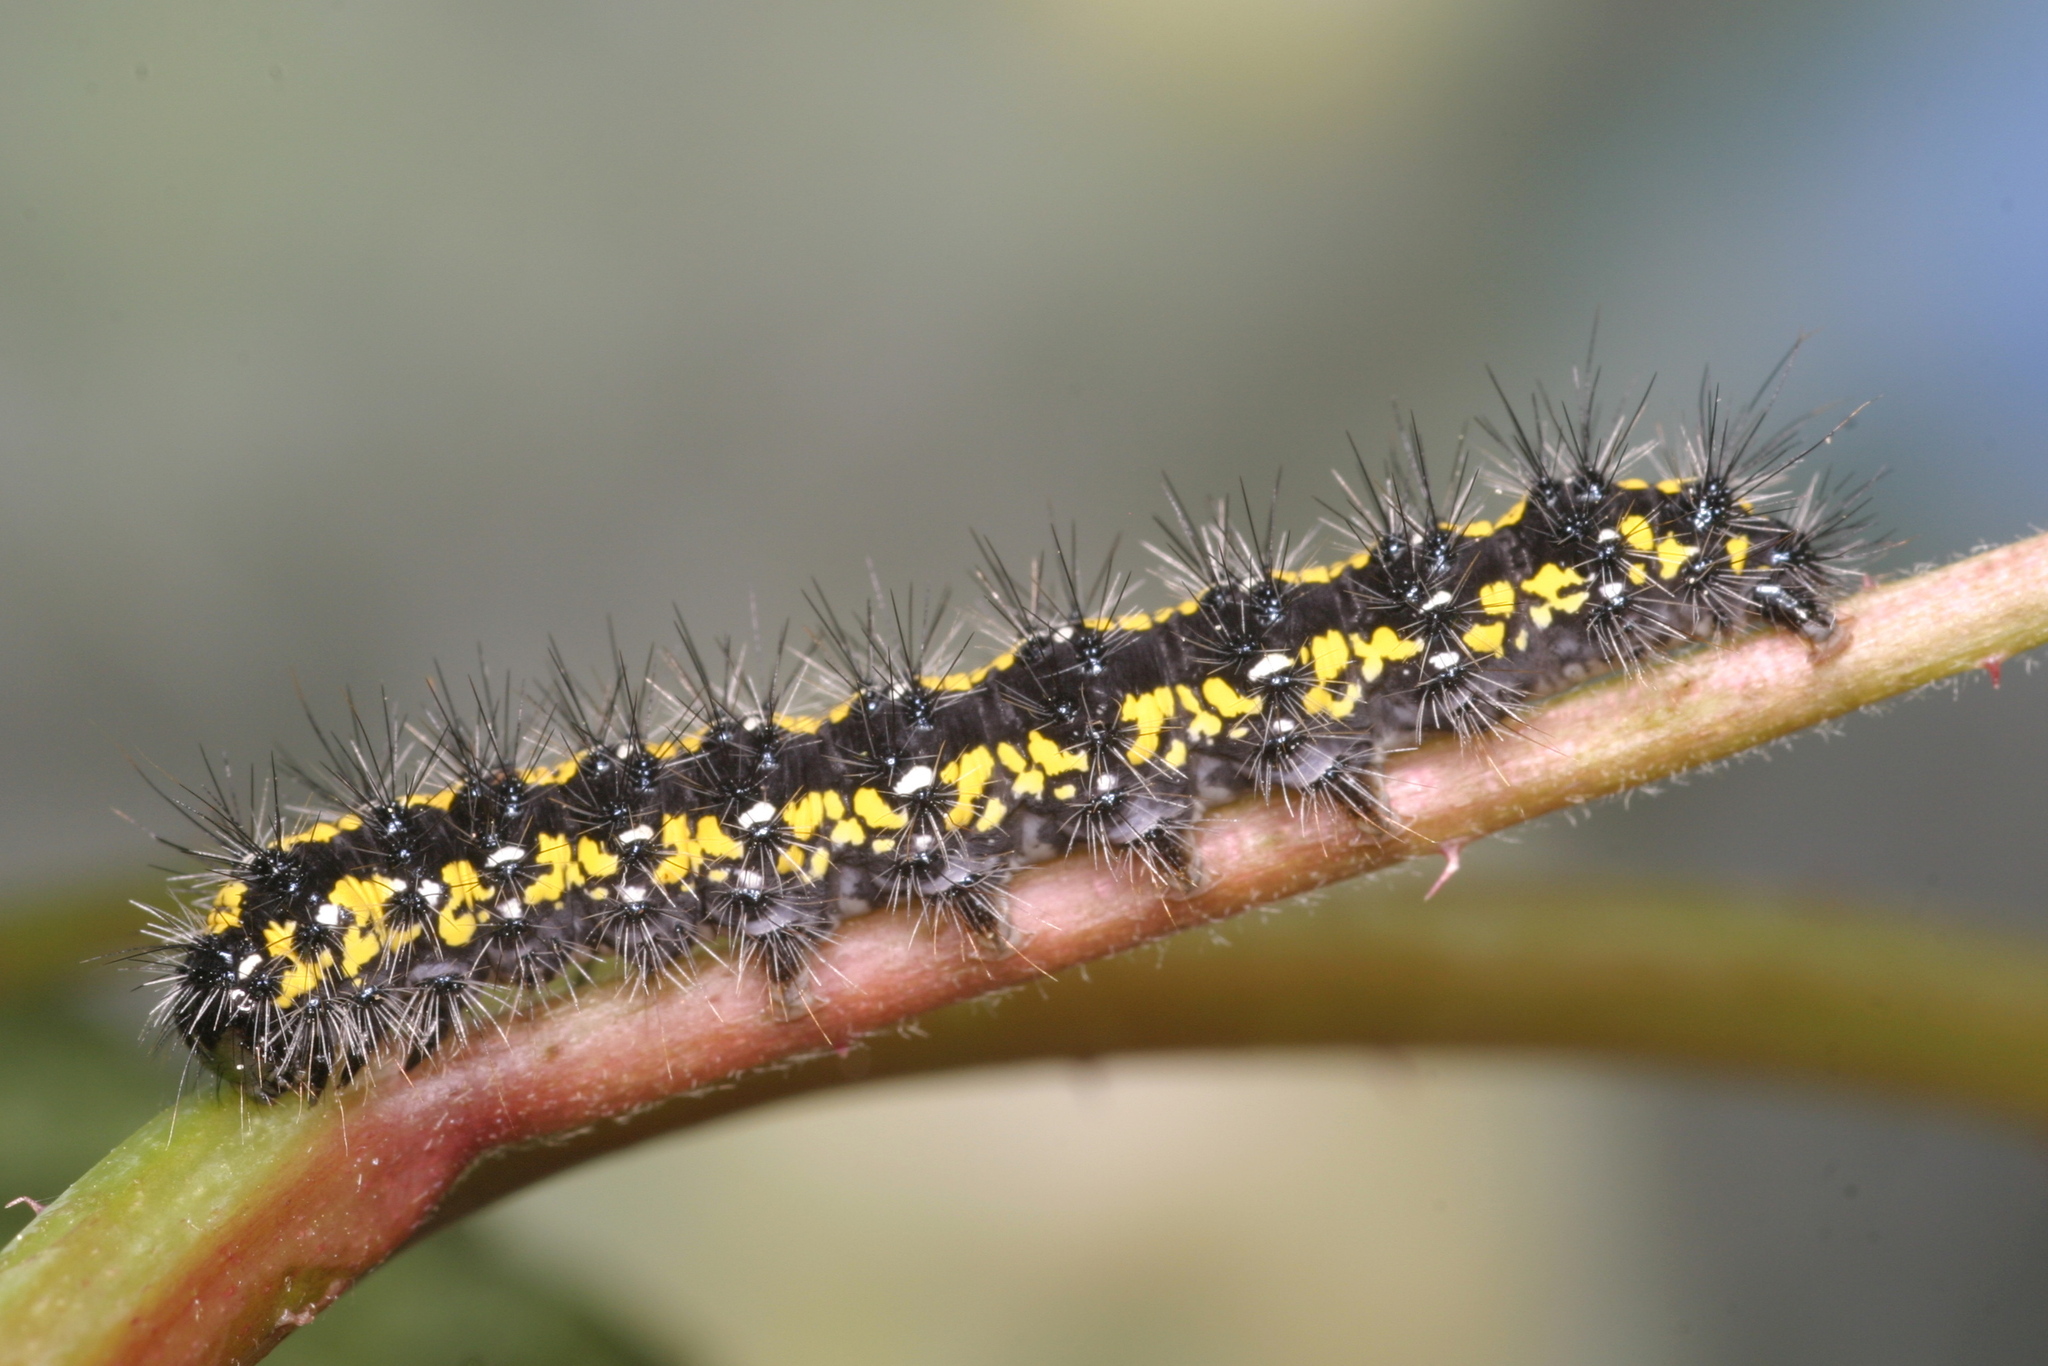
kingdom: Animalia
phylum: Arthropoda
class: Insecta
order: Lepidoptera
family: Erebidae
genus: Callimorpha
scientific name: Callimorpha dominula
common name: Scarlet tiger
